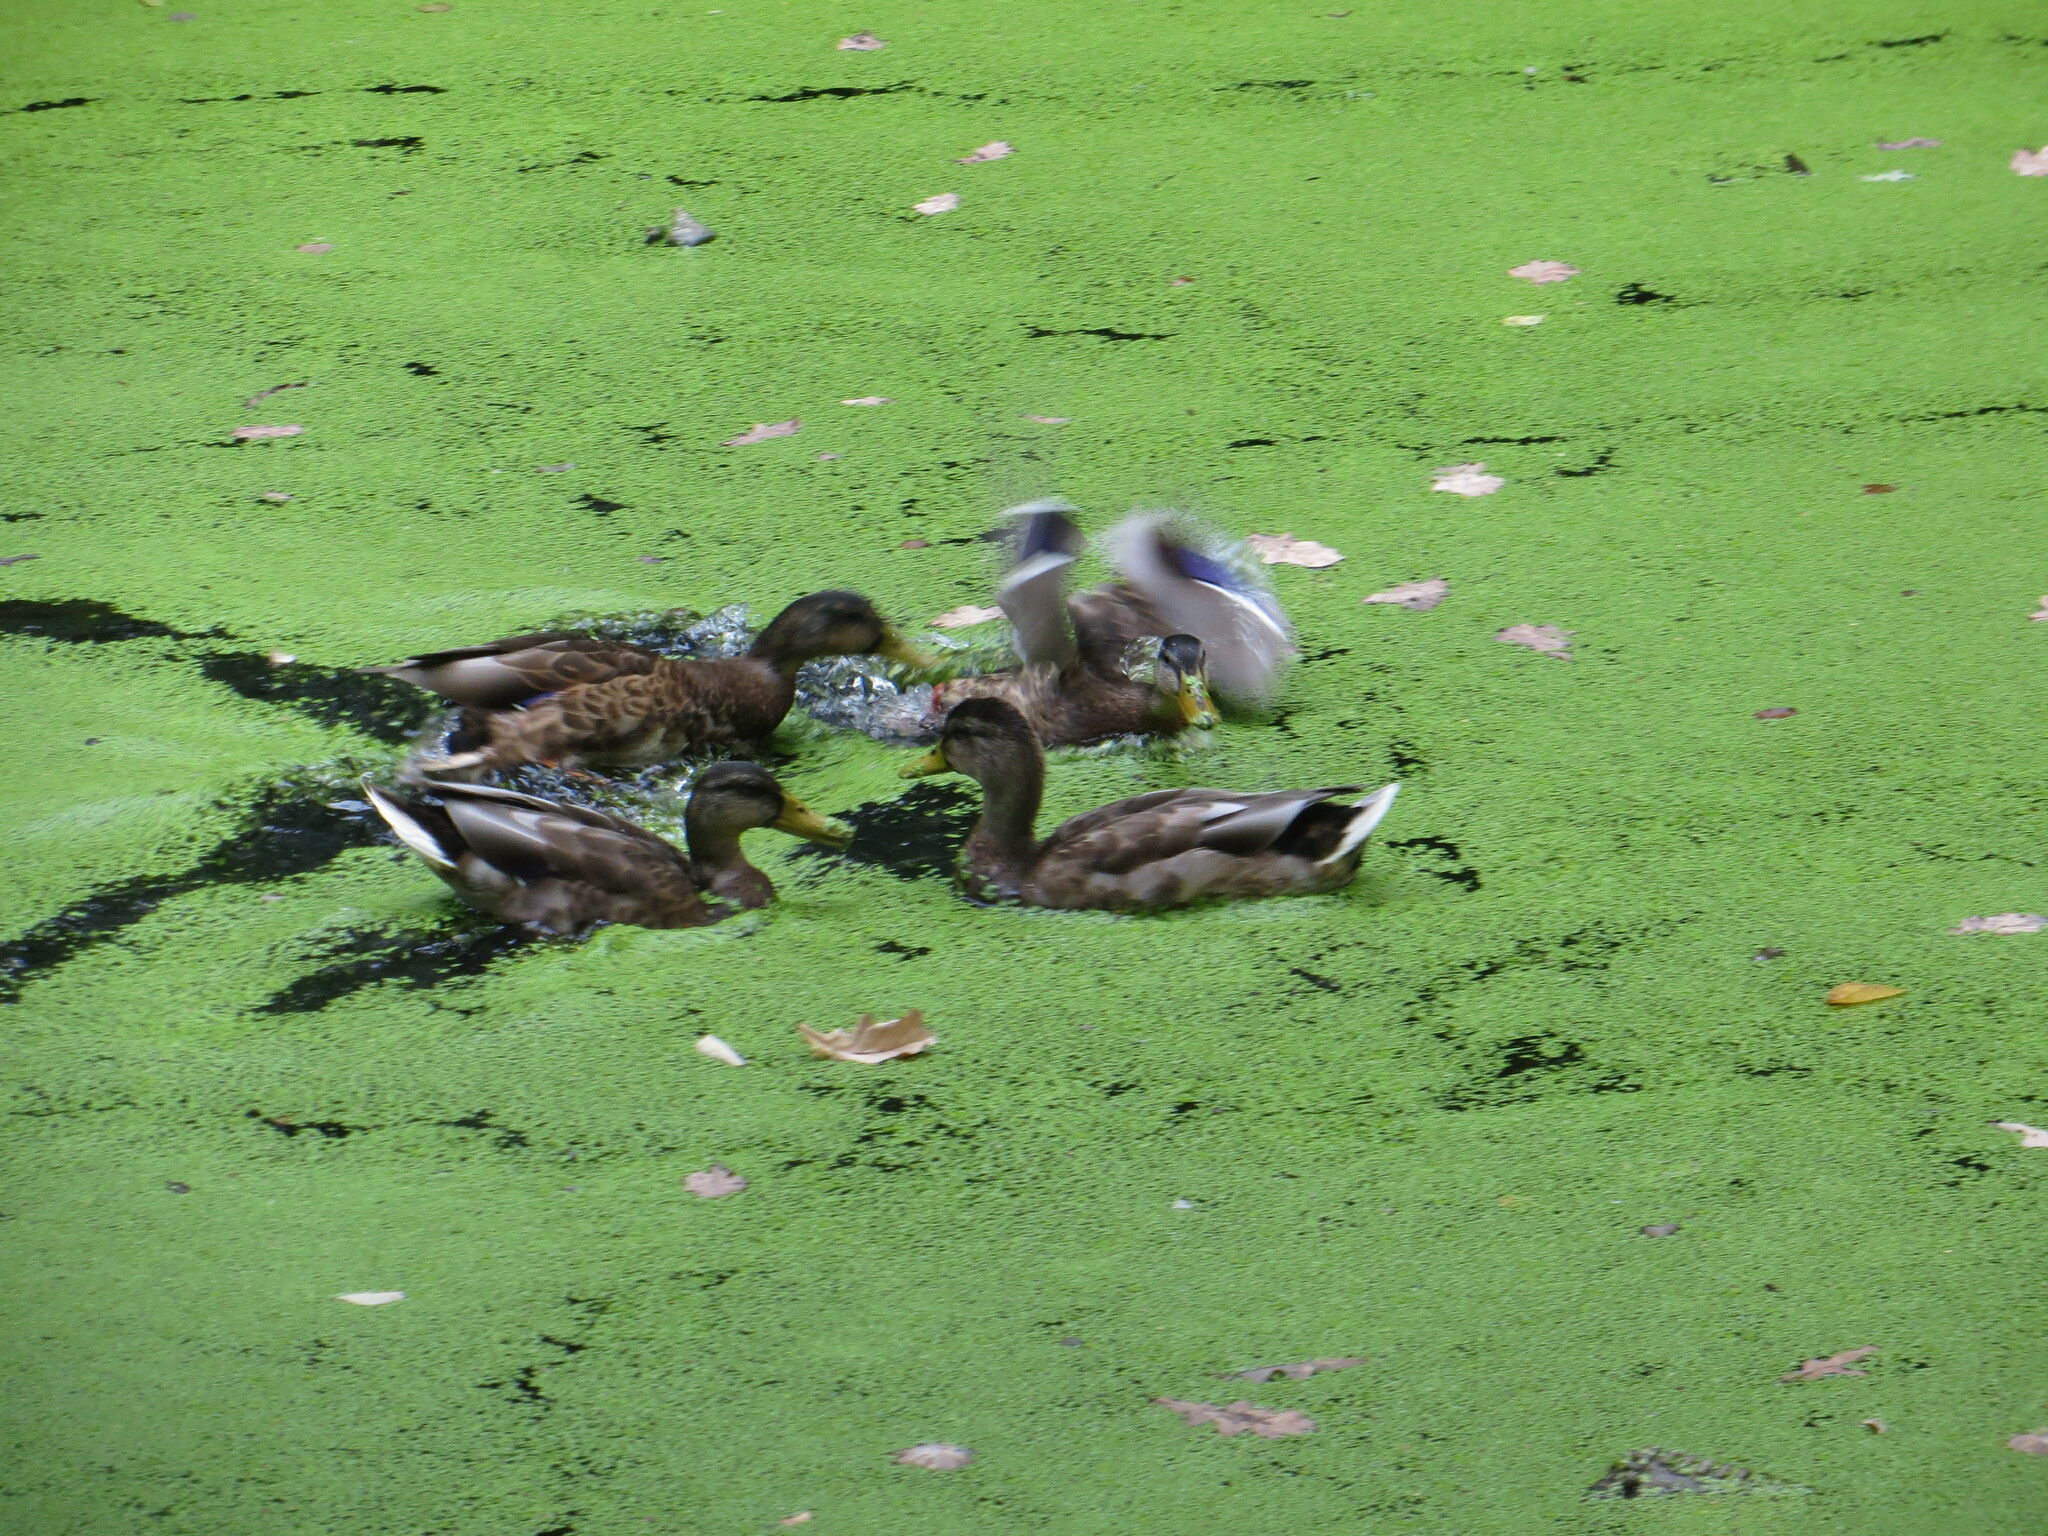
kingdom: Animalia
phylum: Chordata
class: Aves
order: Anseriformes
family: Anatidae
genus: Anas
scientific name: Anas platyrhynchos
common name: Mallard
